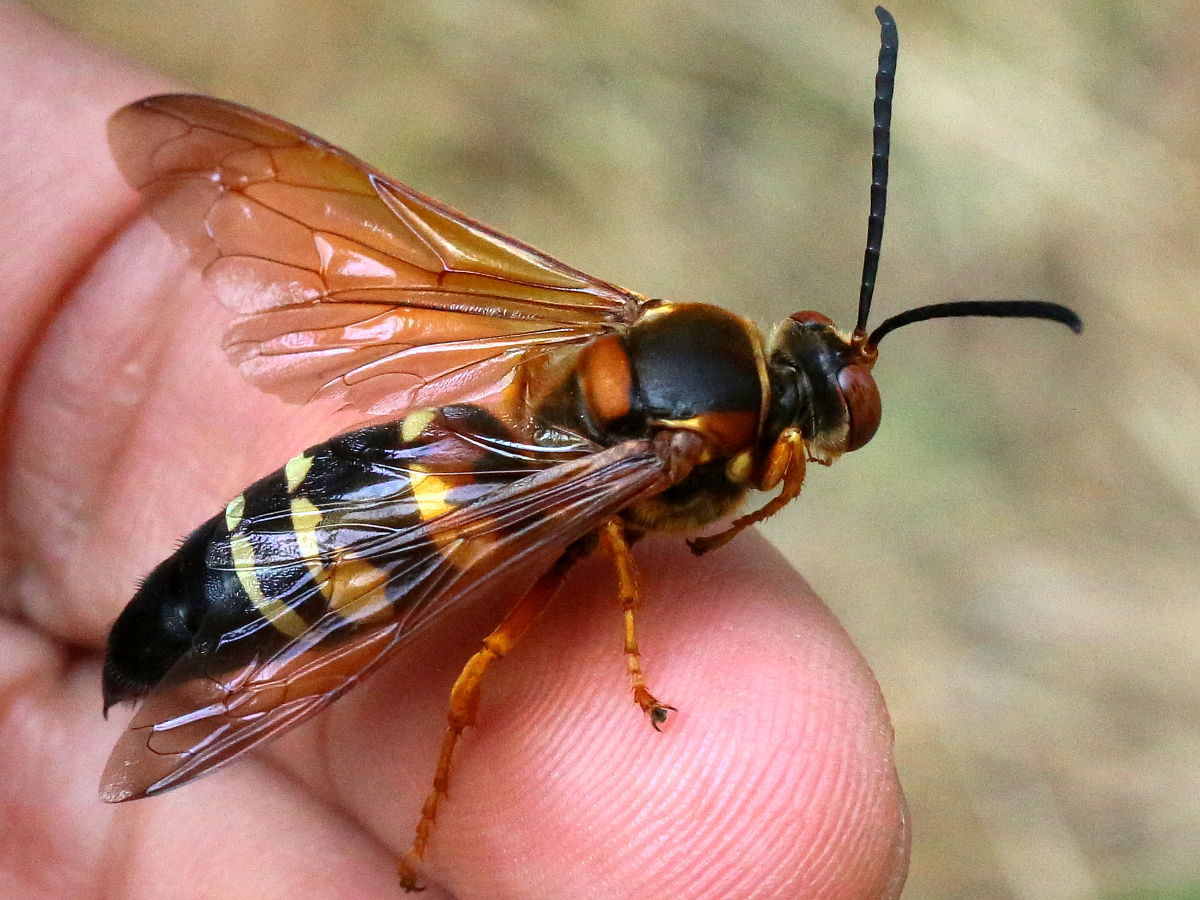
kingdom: Animalia
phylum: Arthropoda
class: Insecta
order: Hymenoptera
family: Crabronidae
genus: Sphecius
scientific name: Sphecius speciosus
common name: Cicada killer
